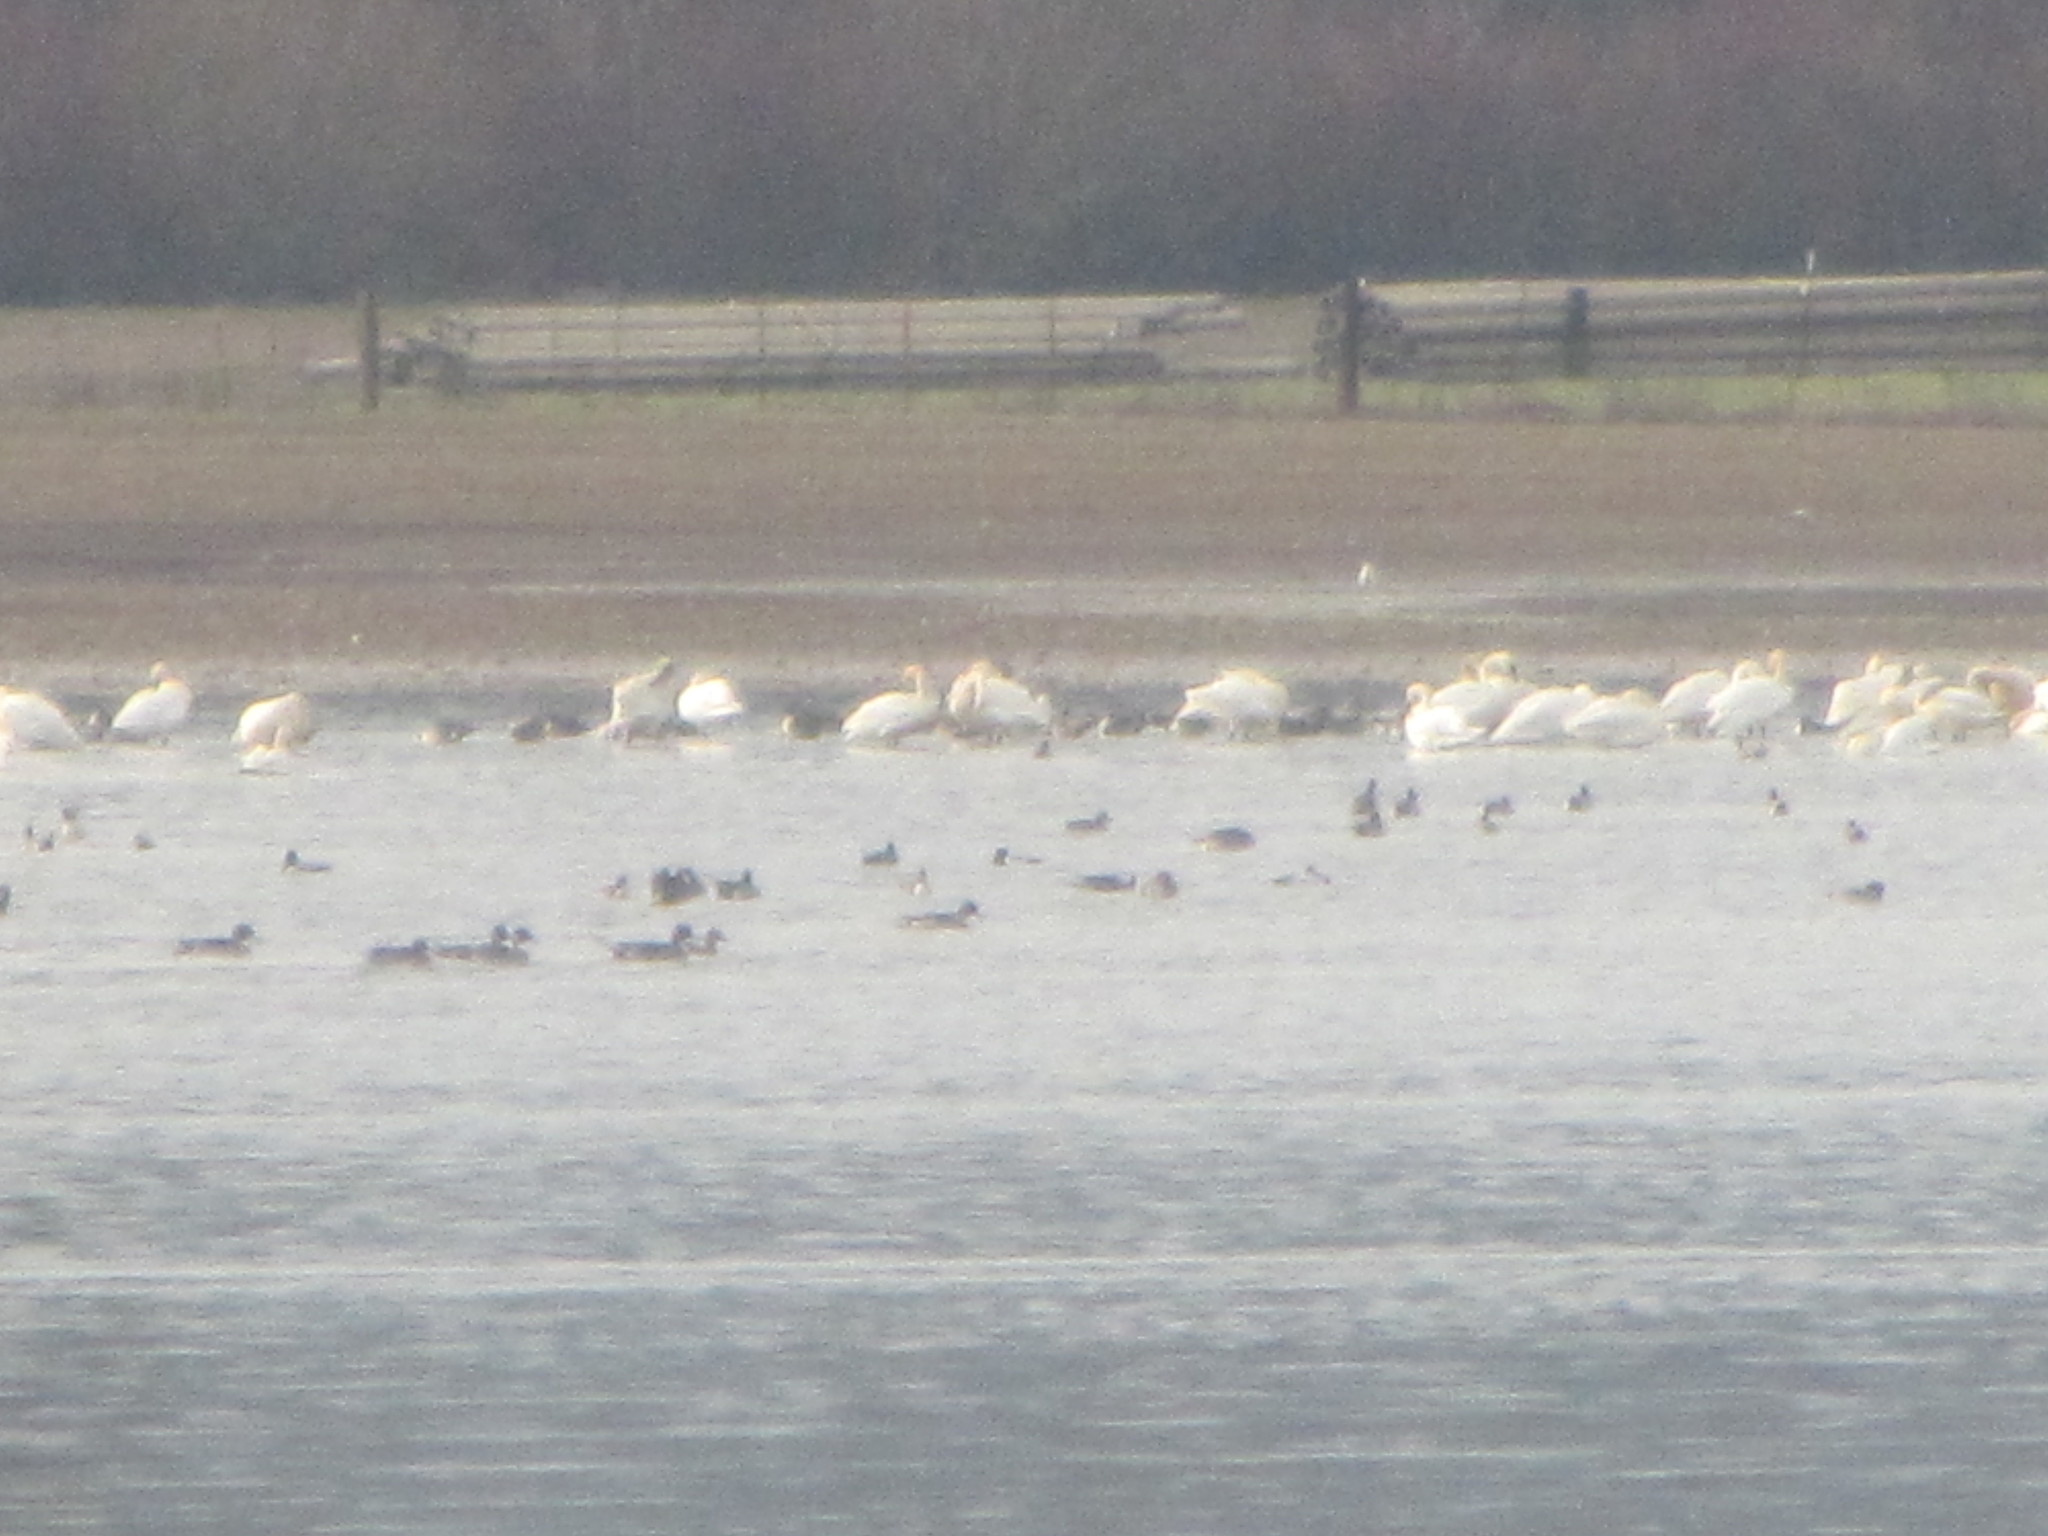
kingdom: Animalia
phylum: Chordata
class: Aves
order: Anseriformes
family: Anatidae
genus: Cygnus
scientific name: Cygnus columbianus
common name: Tundra swan
